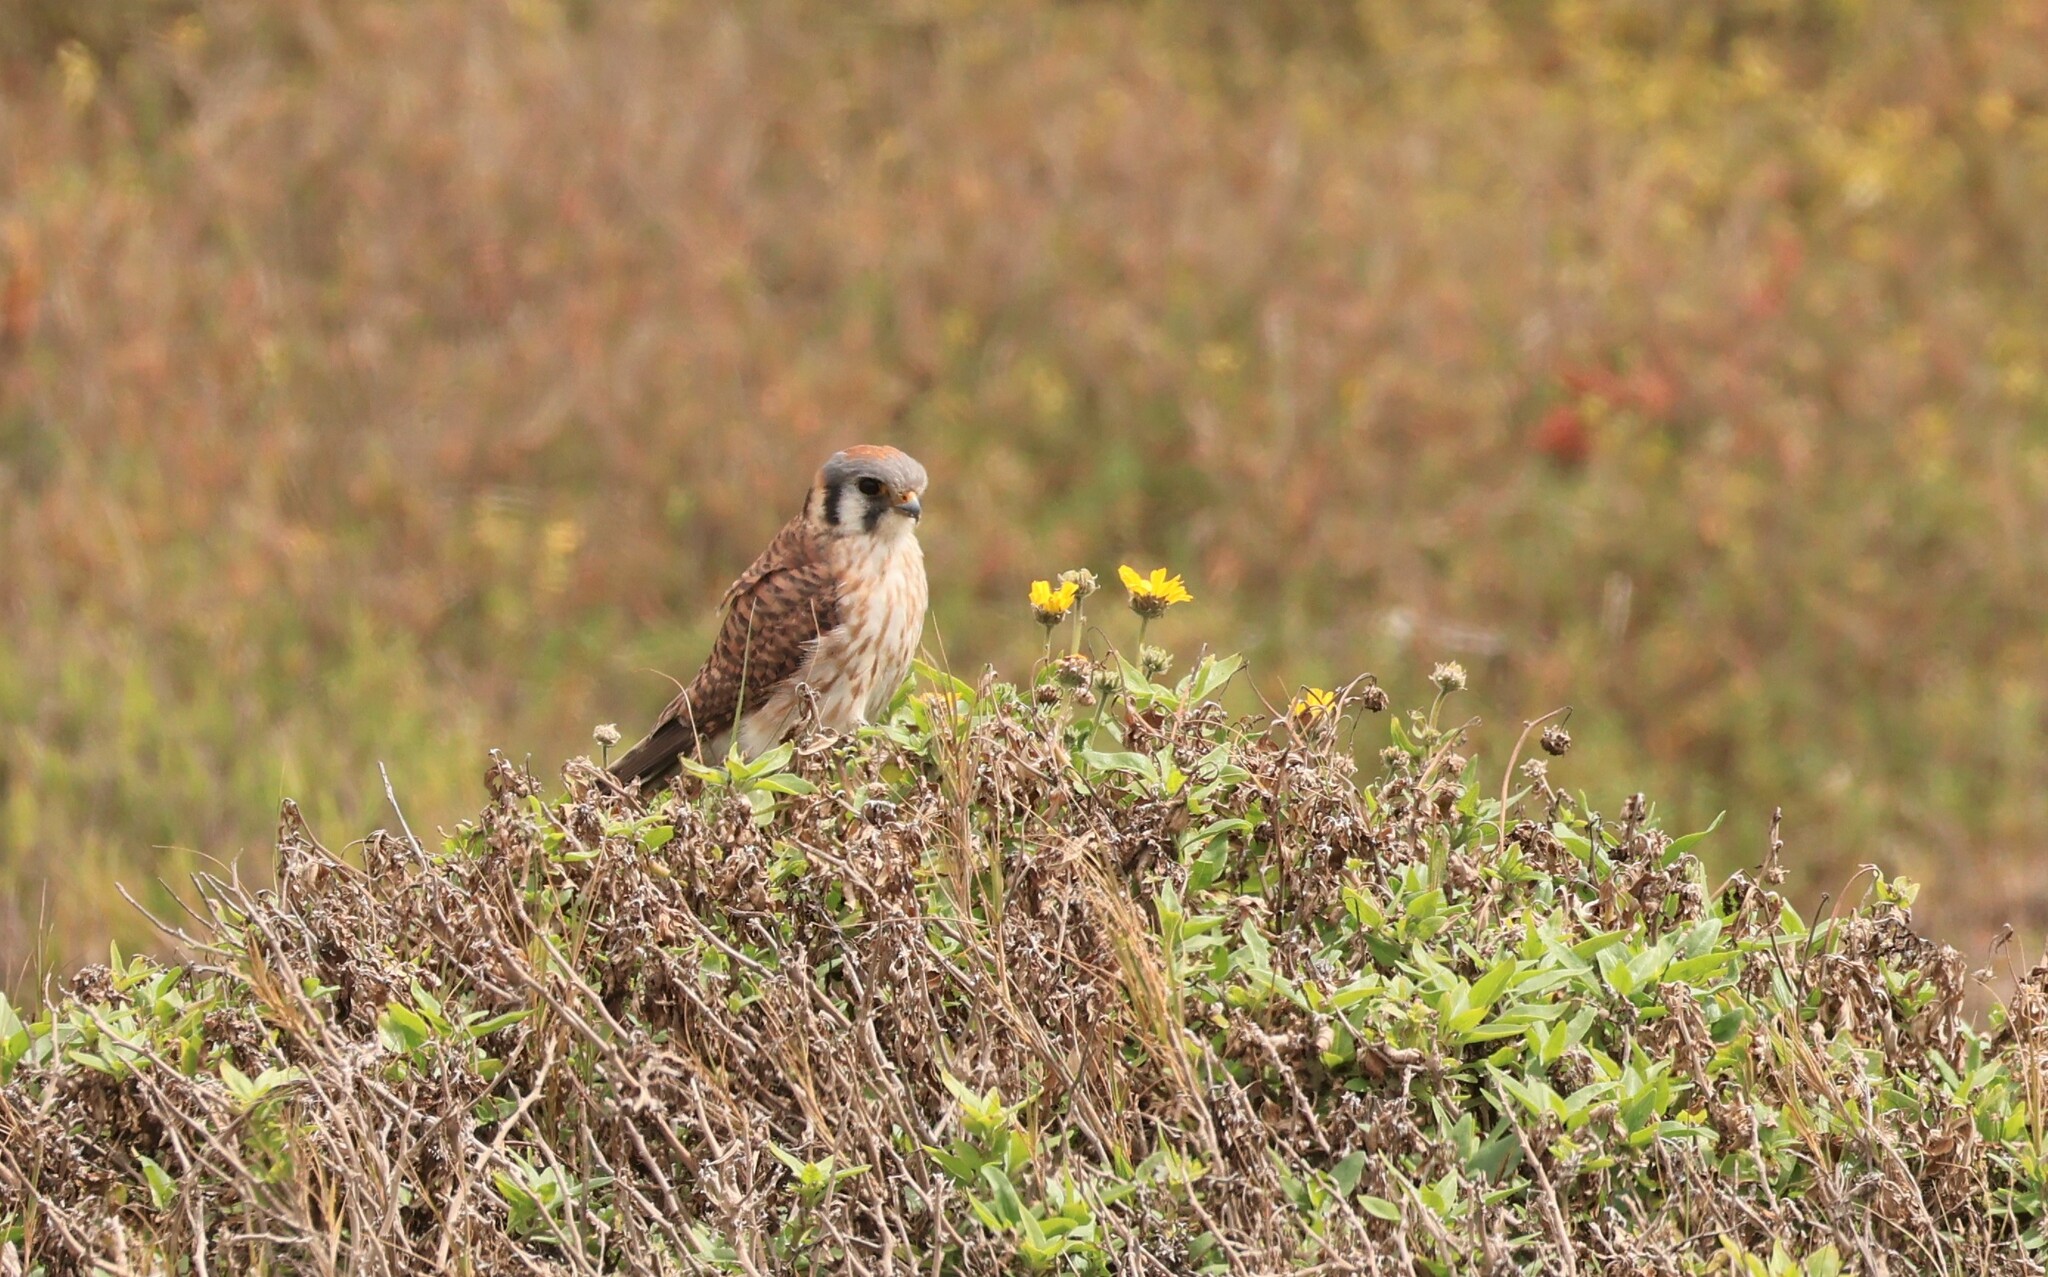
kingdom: Animalia
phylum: Chordata
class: Aves
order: Falconiformes
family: Falconidae
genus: Falco
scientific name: Falco sparverius
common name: American kestrel
